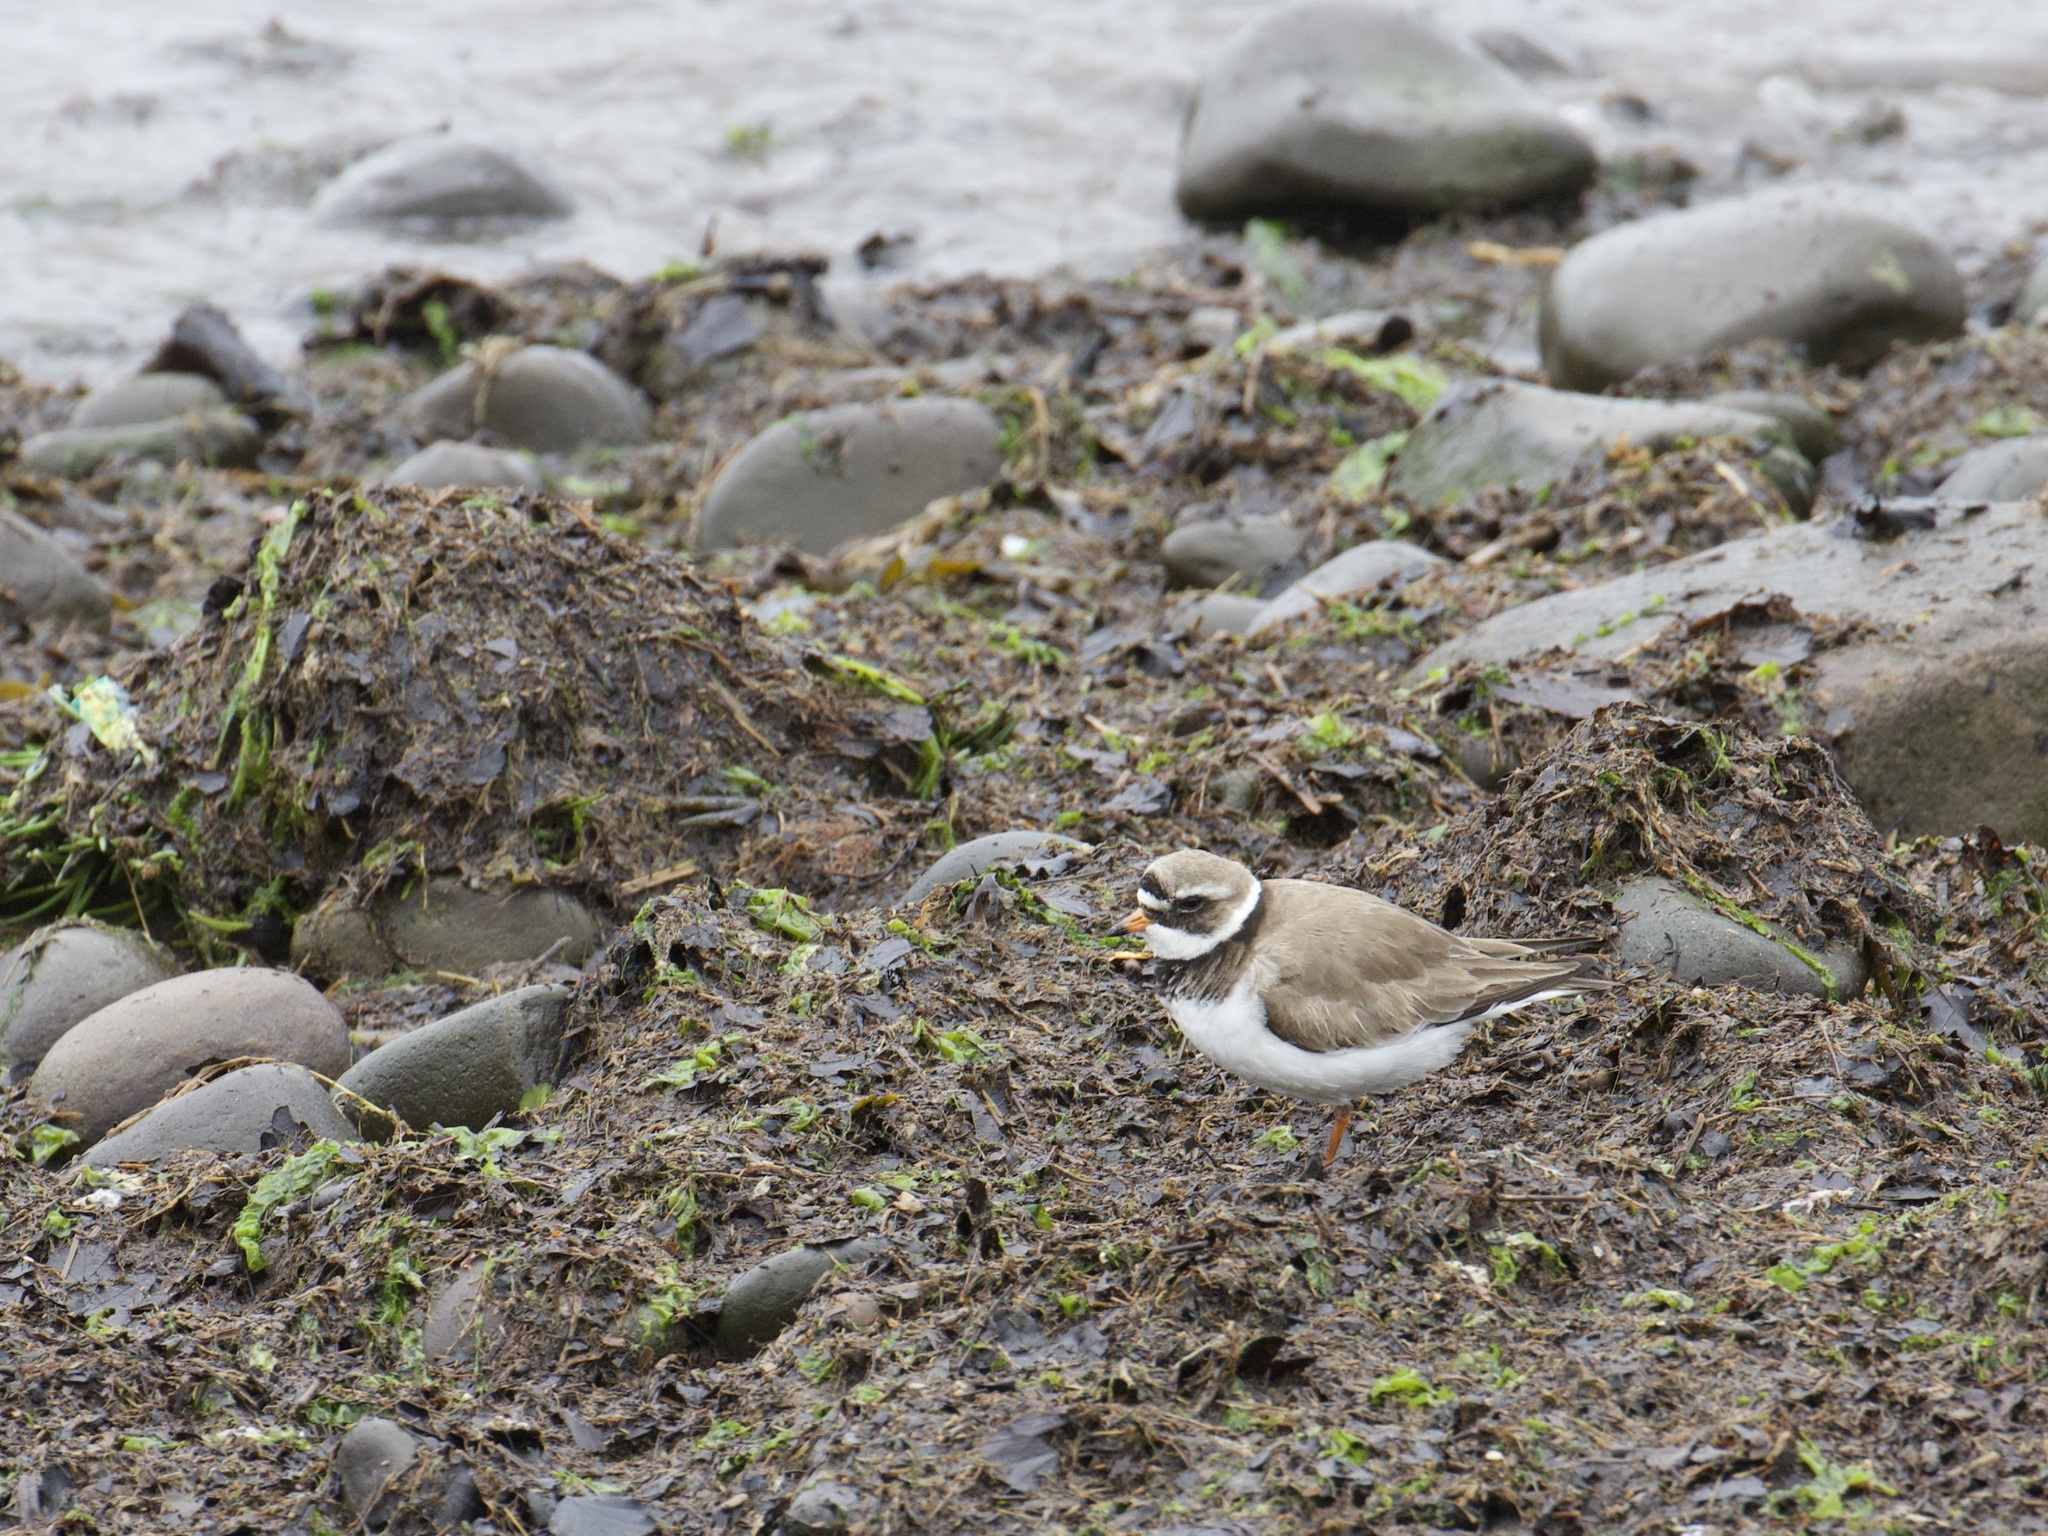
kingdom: Animalia
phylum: Chordata
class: Aves
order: Charadriiformes
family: Charadriidae
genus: Charadrius
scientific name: Charadrius hiaticula
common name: Common ringed plover
